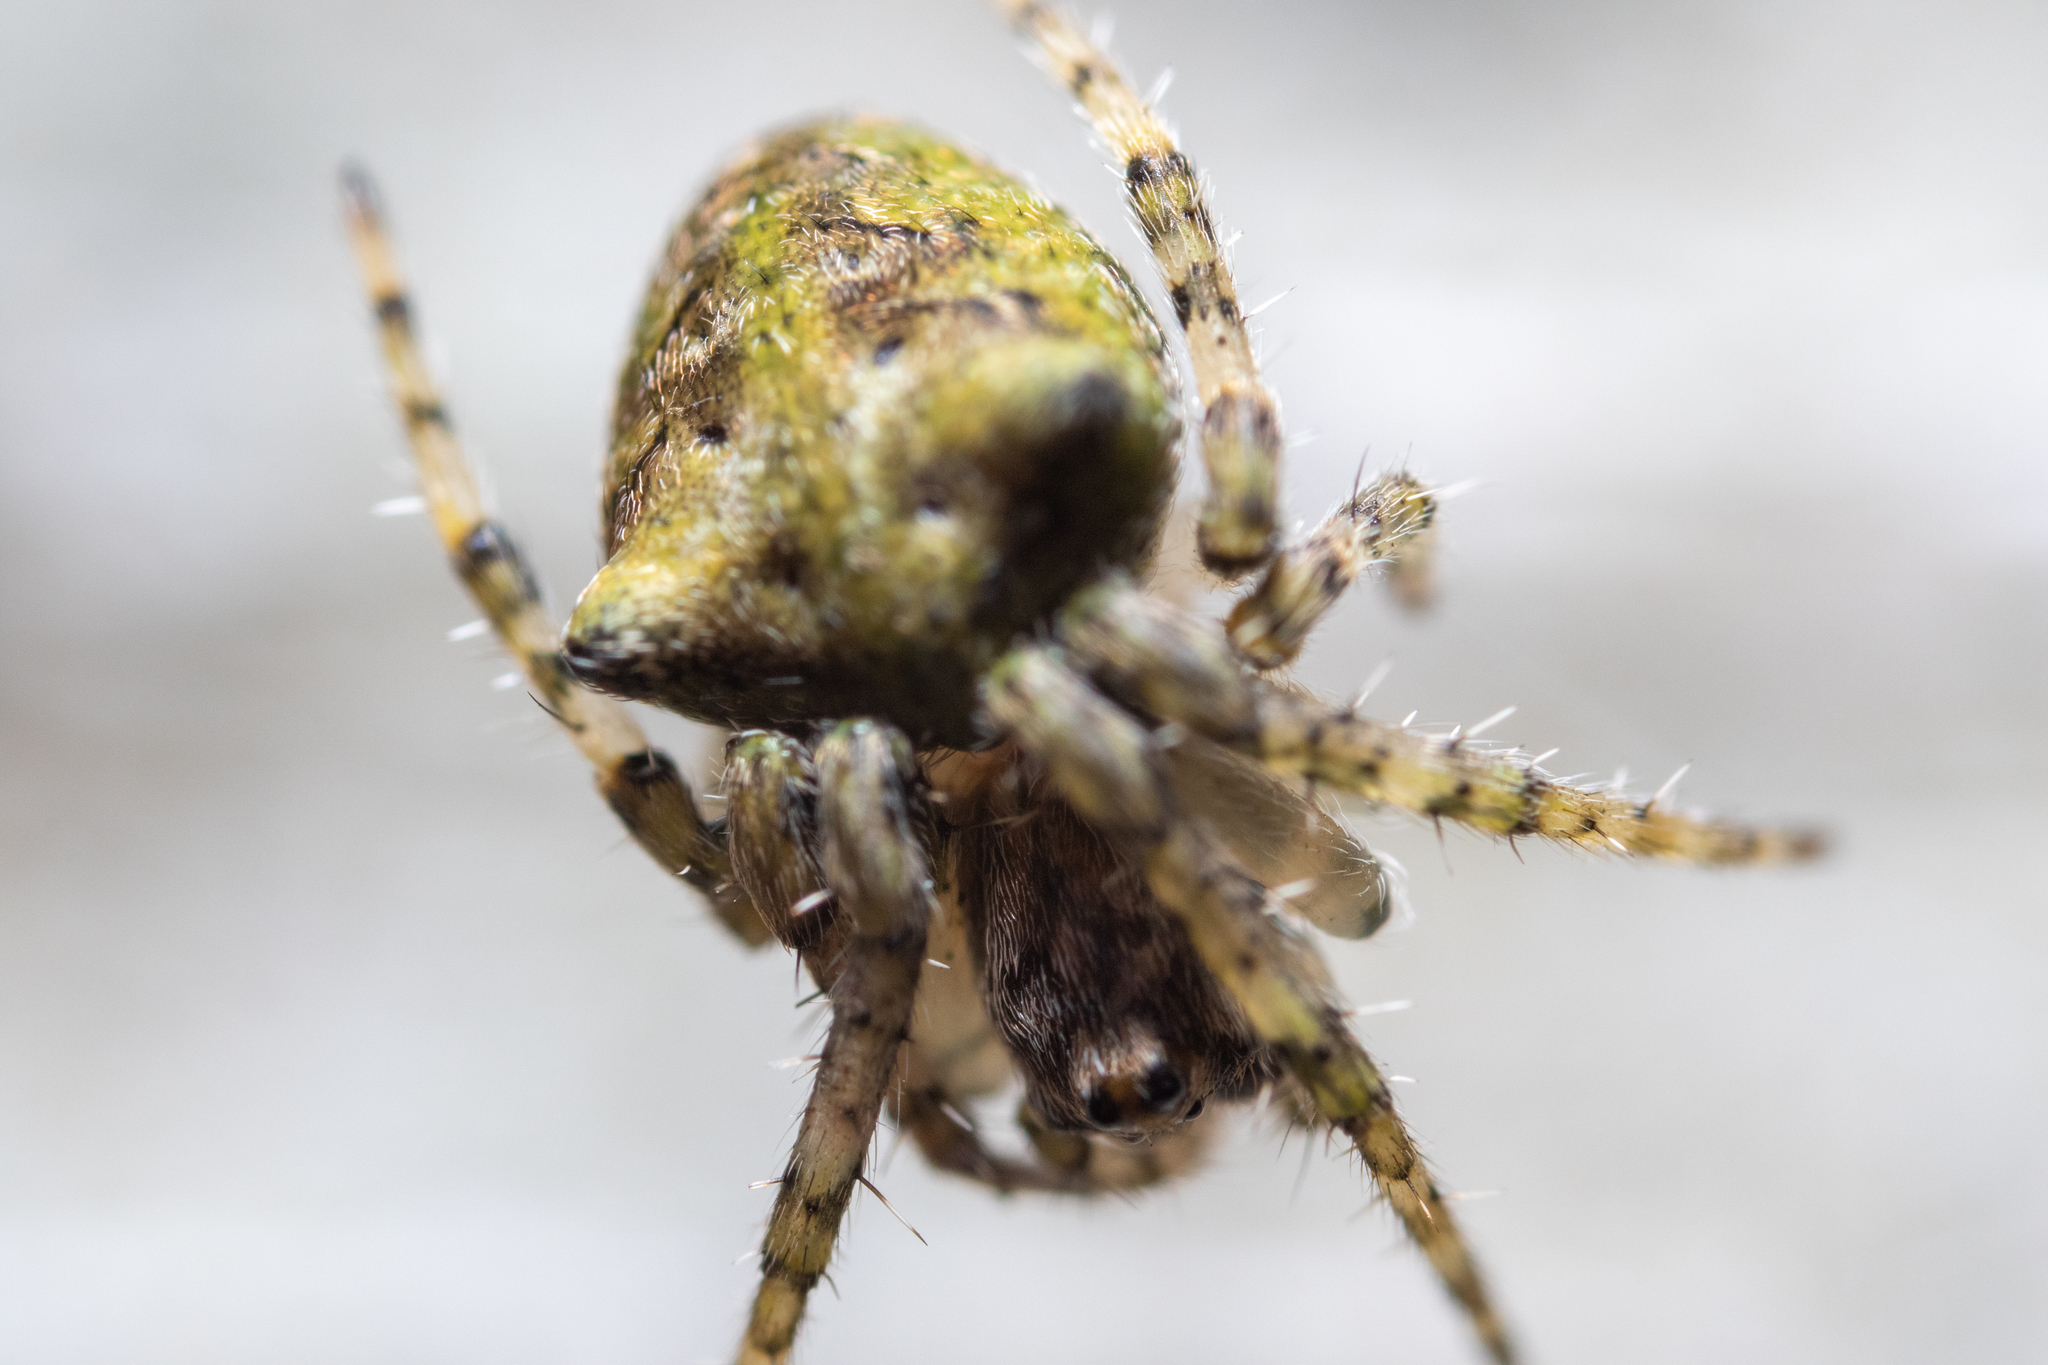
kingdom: Animalia
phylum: Arthropoda
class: Arachnida
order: Araneae
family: Araneidae
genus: Gibbaranea
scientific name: Gibbaranea gibbosa
